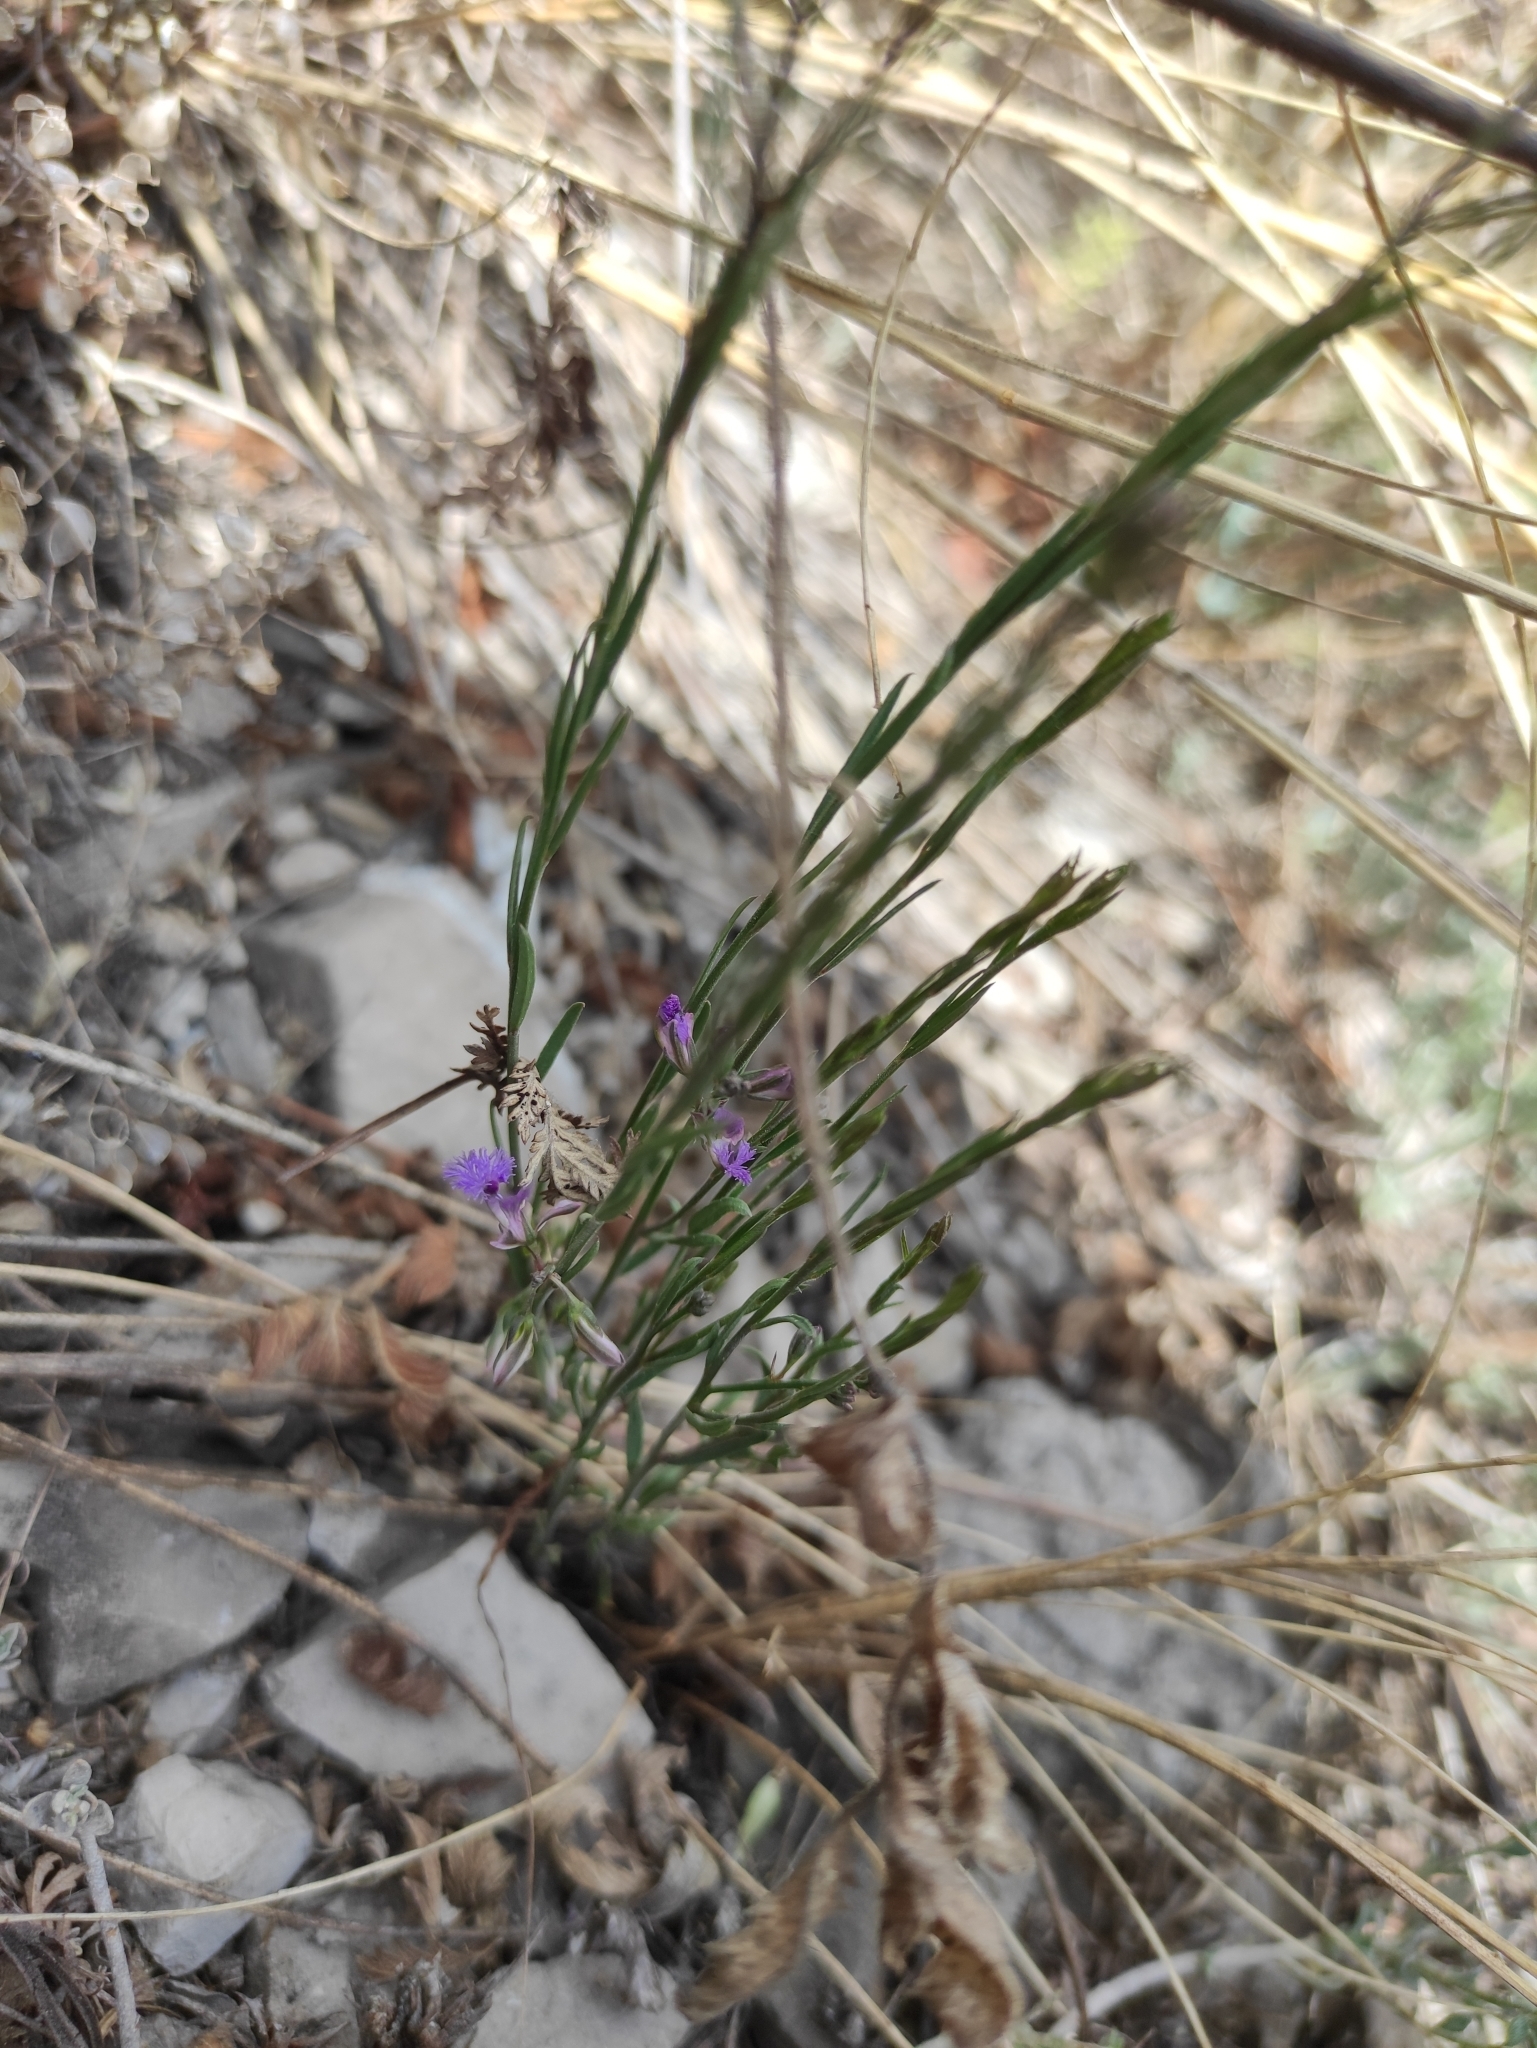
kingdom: Plantae
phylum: Tracheophyta
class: Magnoliopsida
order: Fabales
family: Polygalaceae
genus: Polygala
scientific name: Polygala sibirica
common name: Siberian polygala
